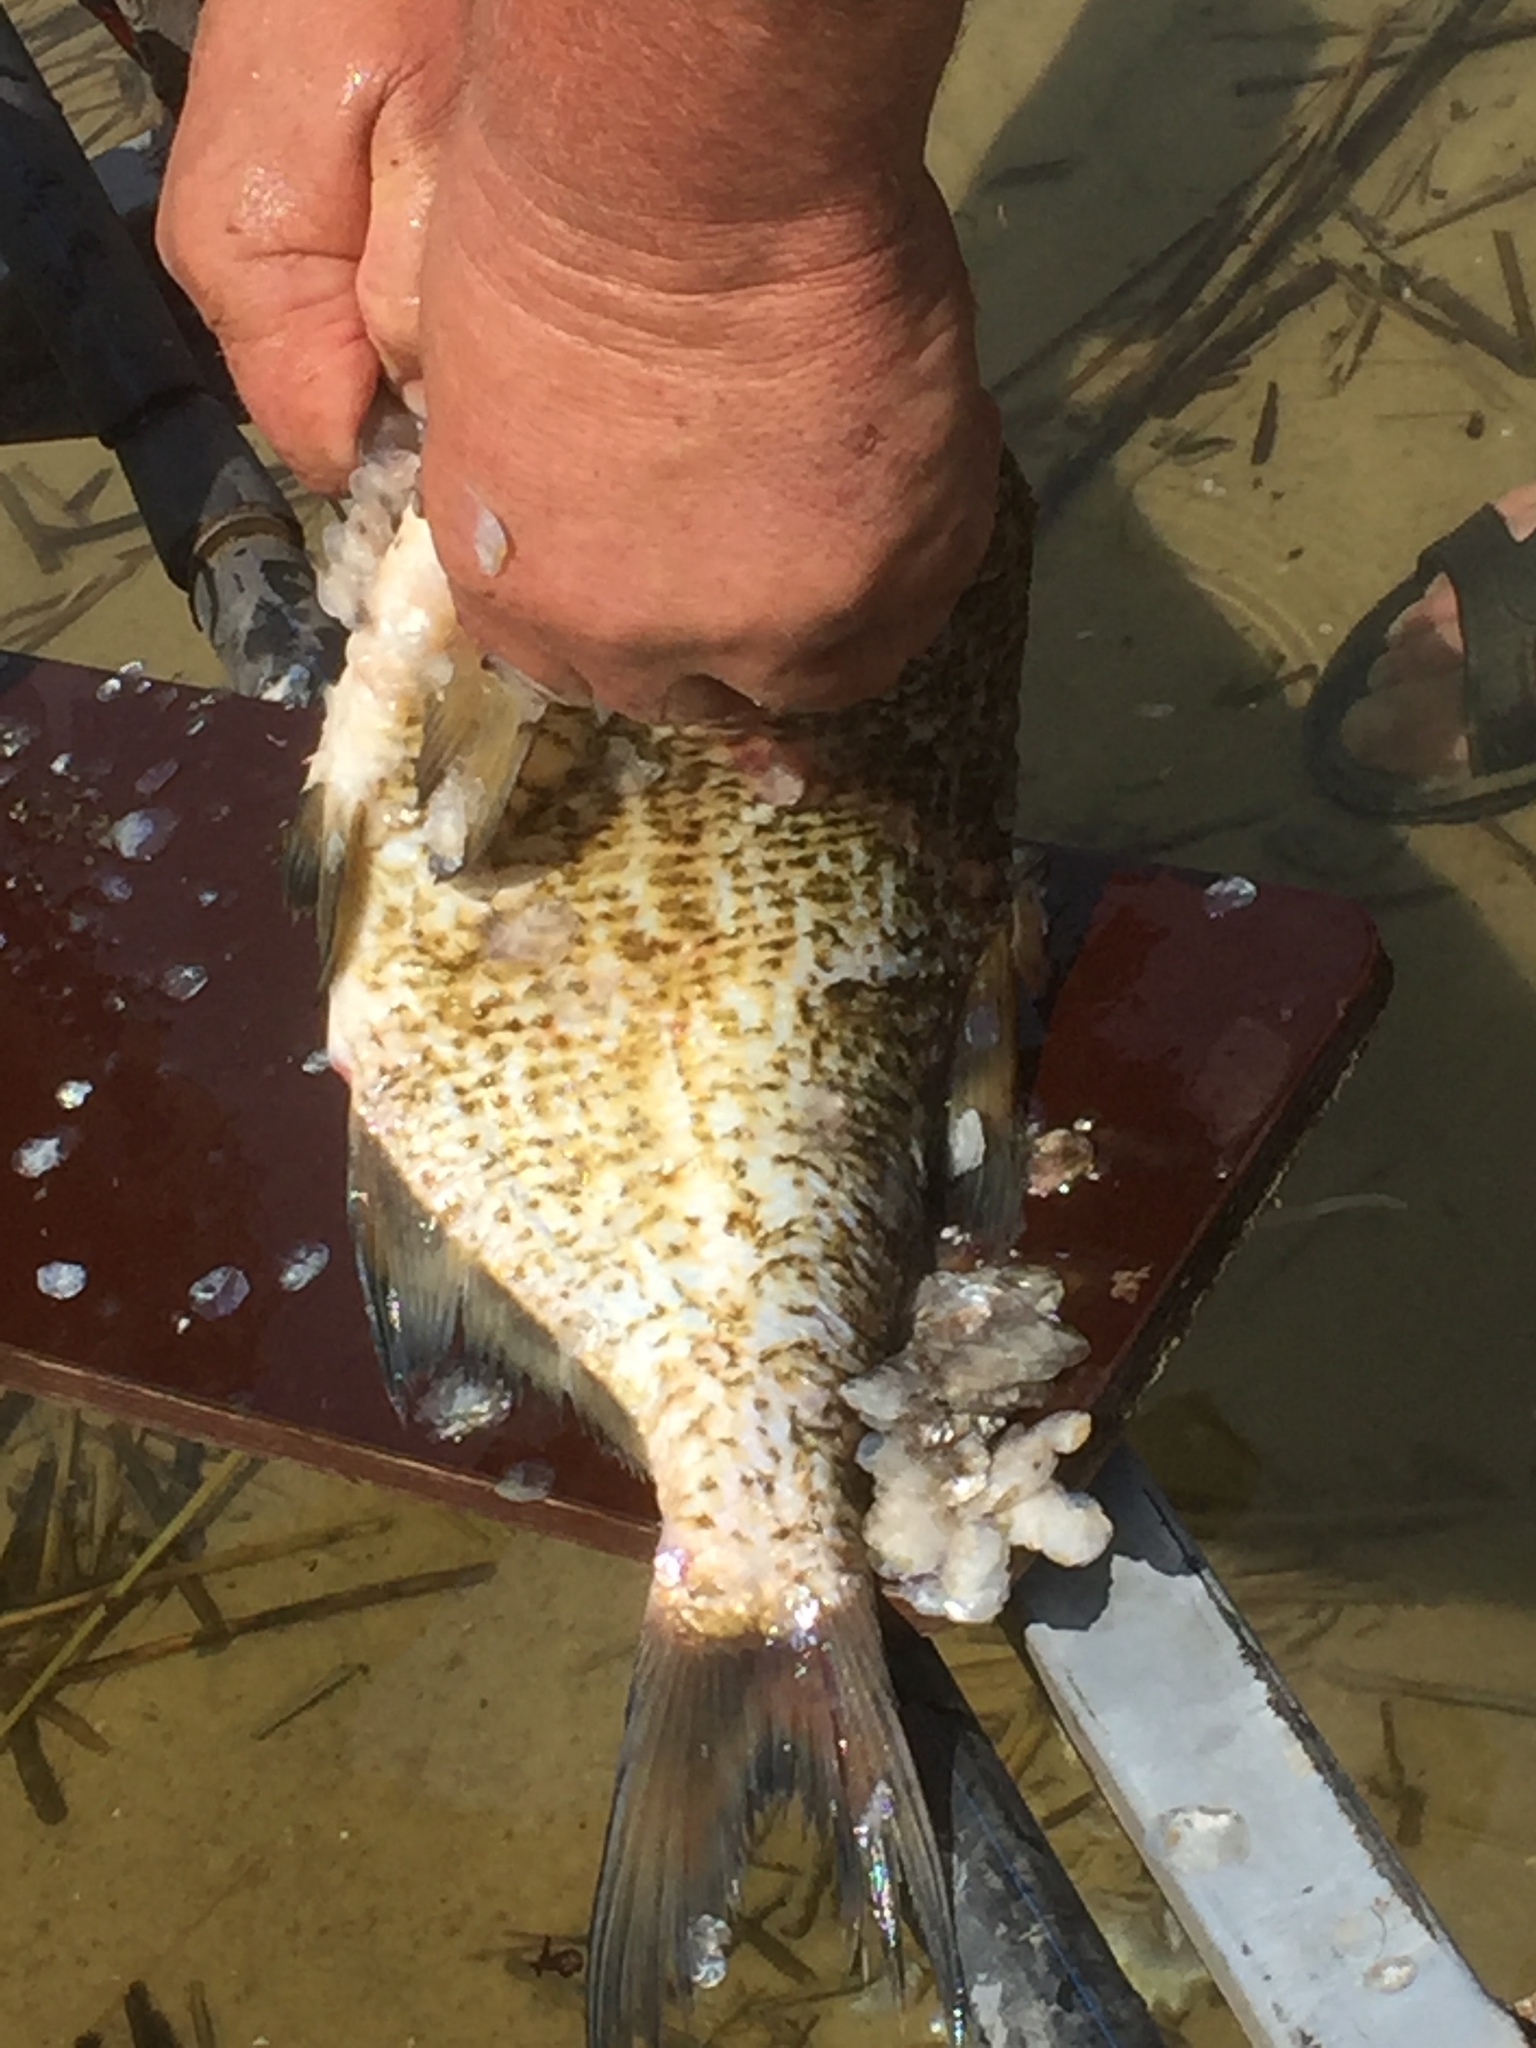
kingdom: Animalia
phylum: Chordata
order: Cypriniformes
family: Cyprinidae
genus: Abramis
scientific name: Abramis brama
